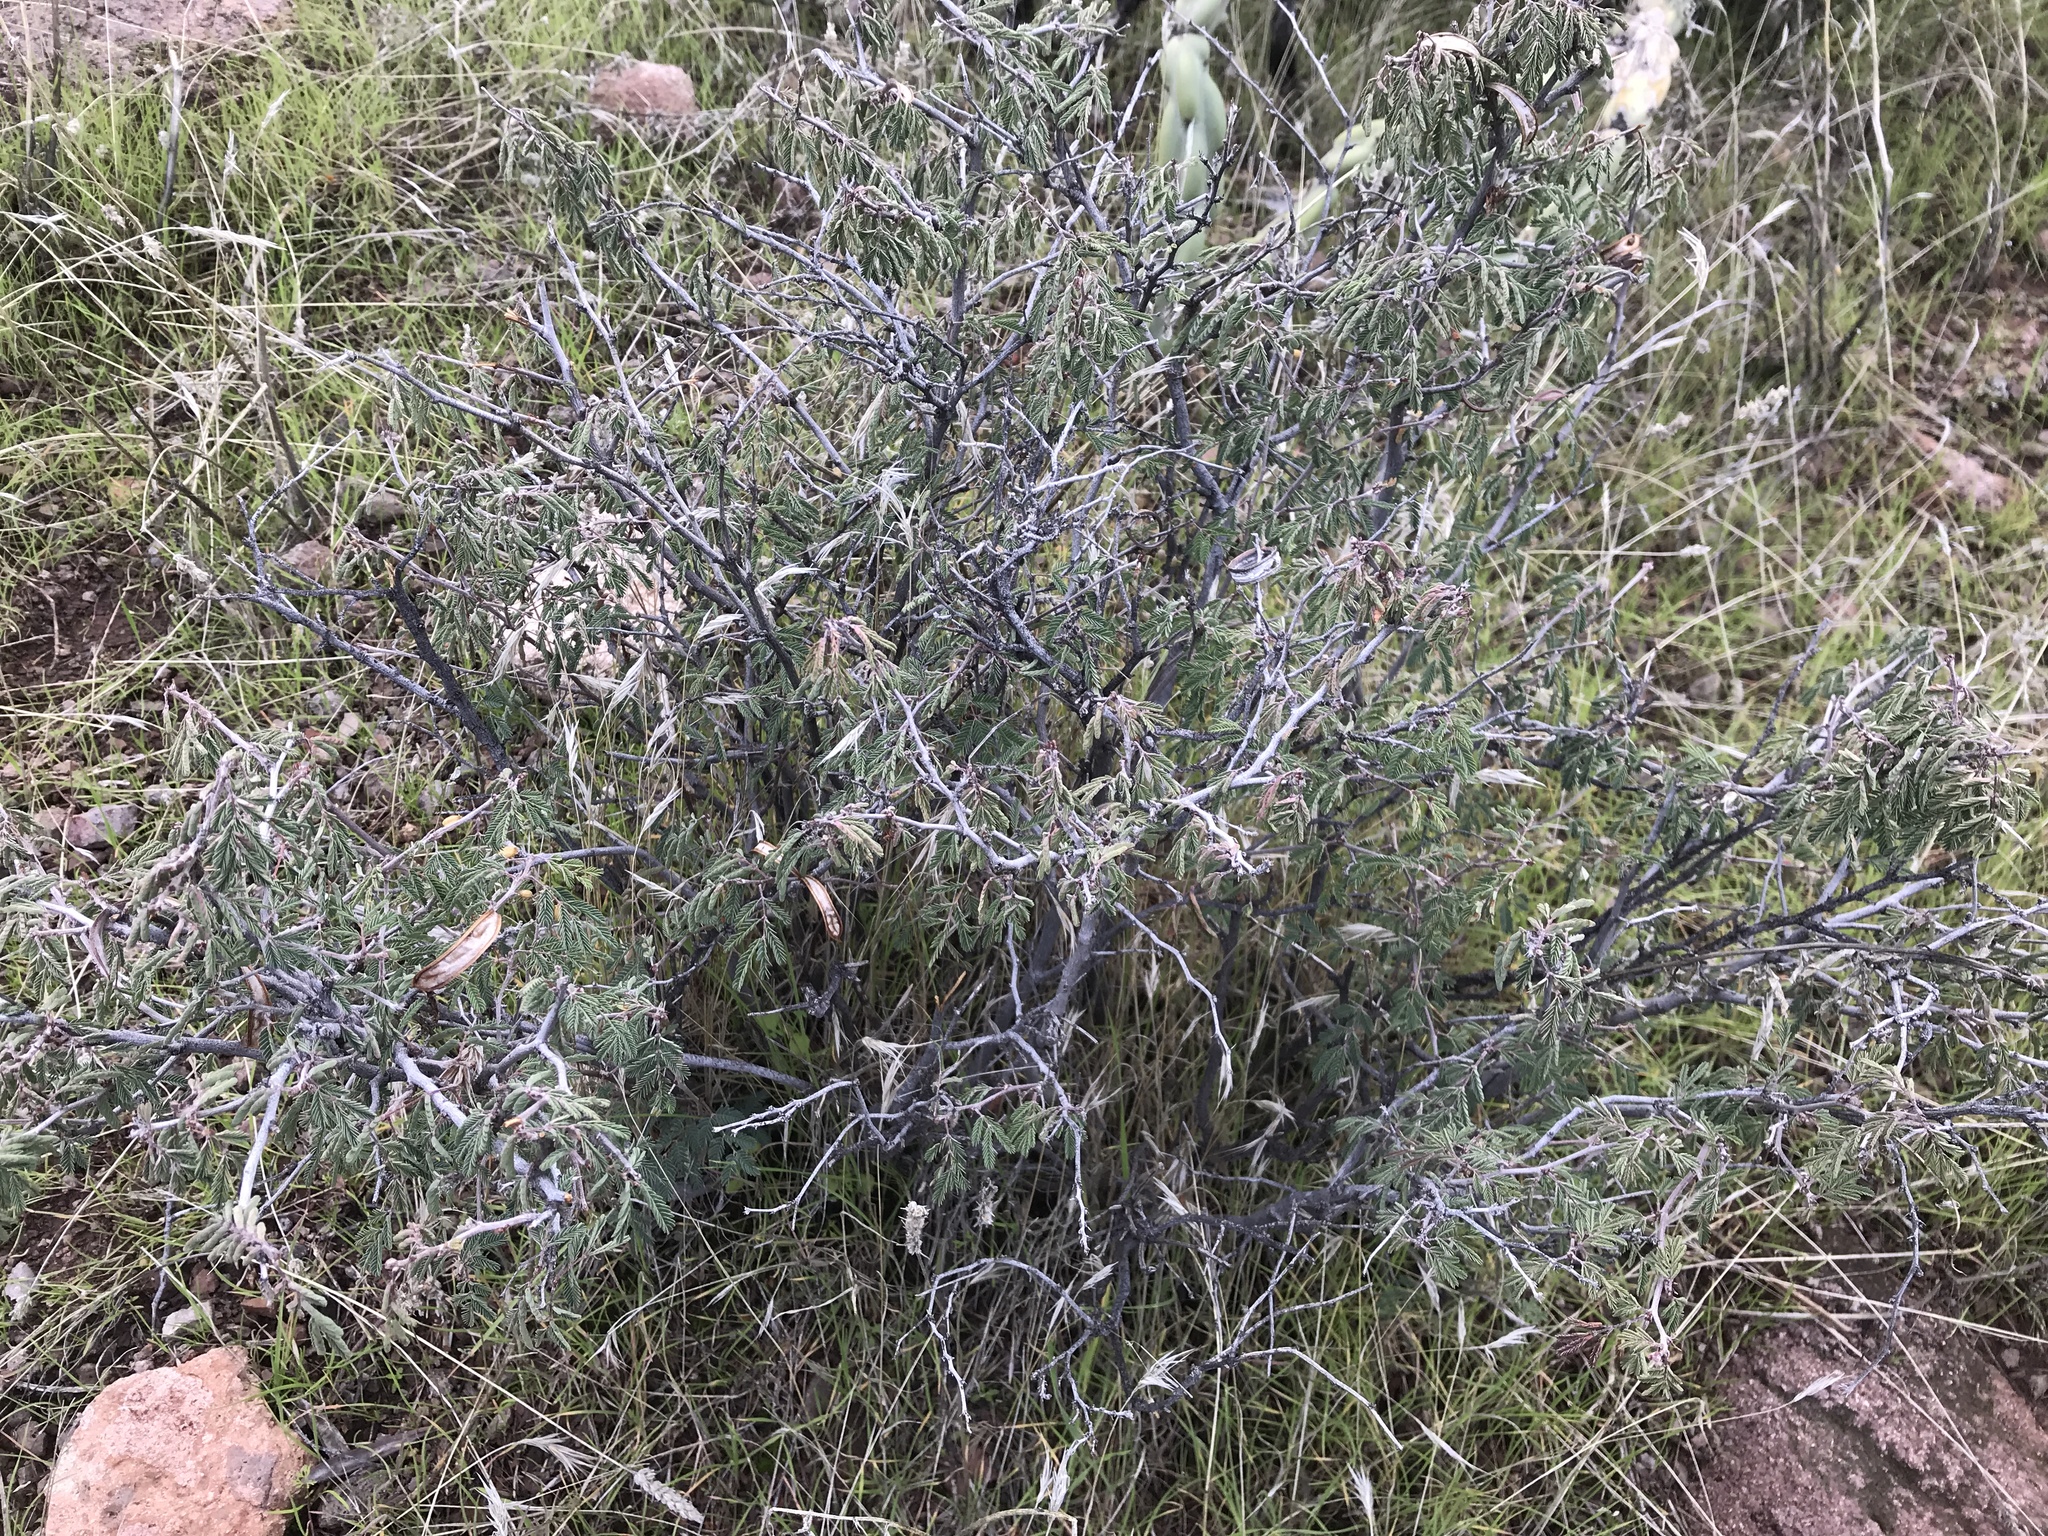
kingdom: Plantae
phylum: Tracheophyta
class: Magnoliopsida
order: Fabales
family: Fabaceae
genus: Calliandra
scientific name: Calliandra eriophylla
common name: Fairy-duster
